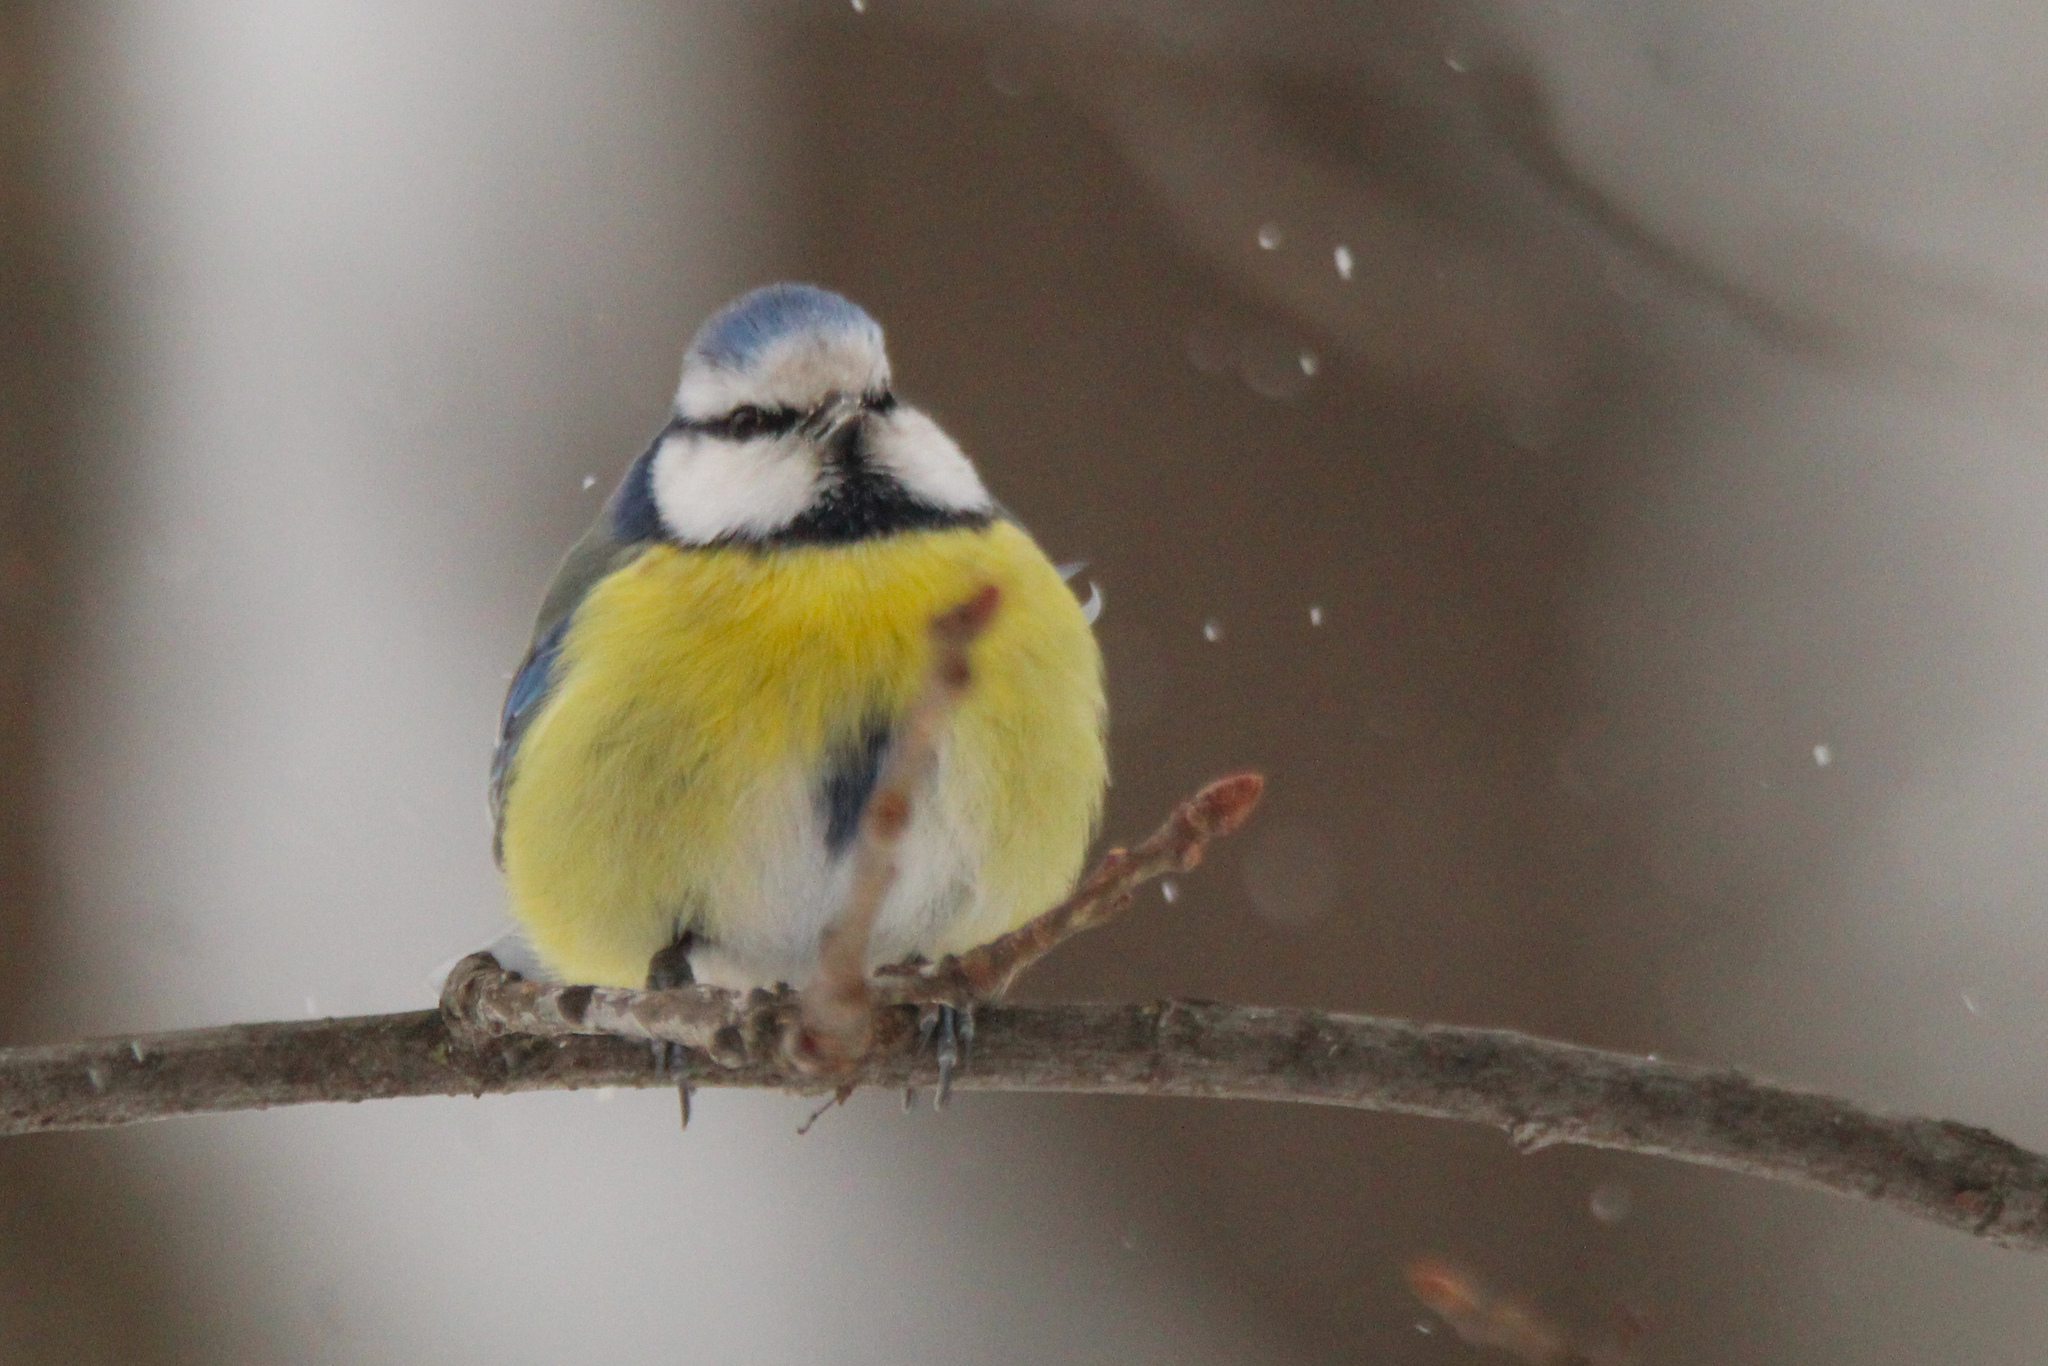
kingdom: Animalia
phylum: Chordata
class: Aves
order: Passeriformes
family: Paridae
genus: Cyanistes
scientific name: Cyanistes caeruleus
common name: Eurasian blue tit
